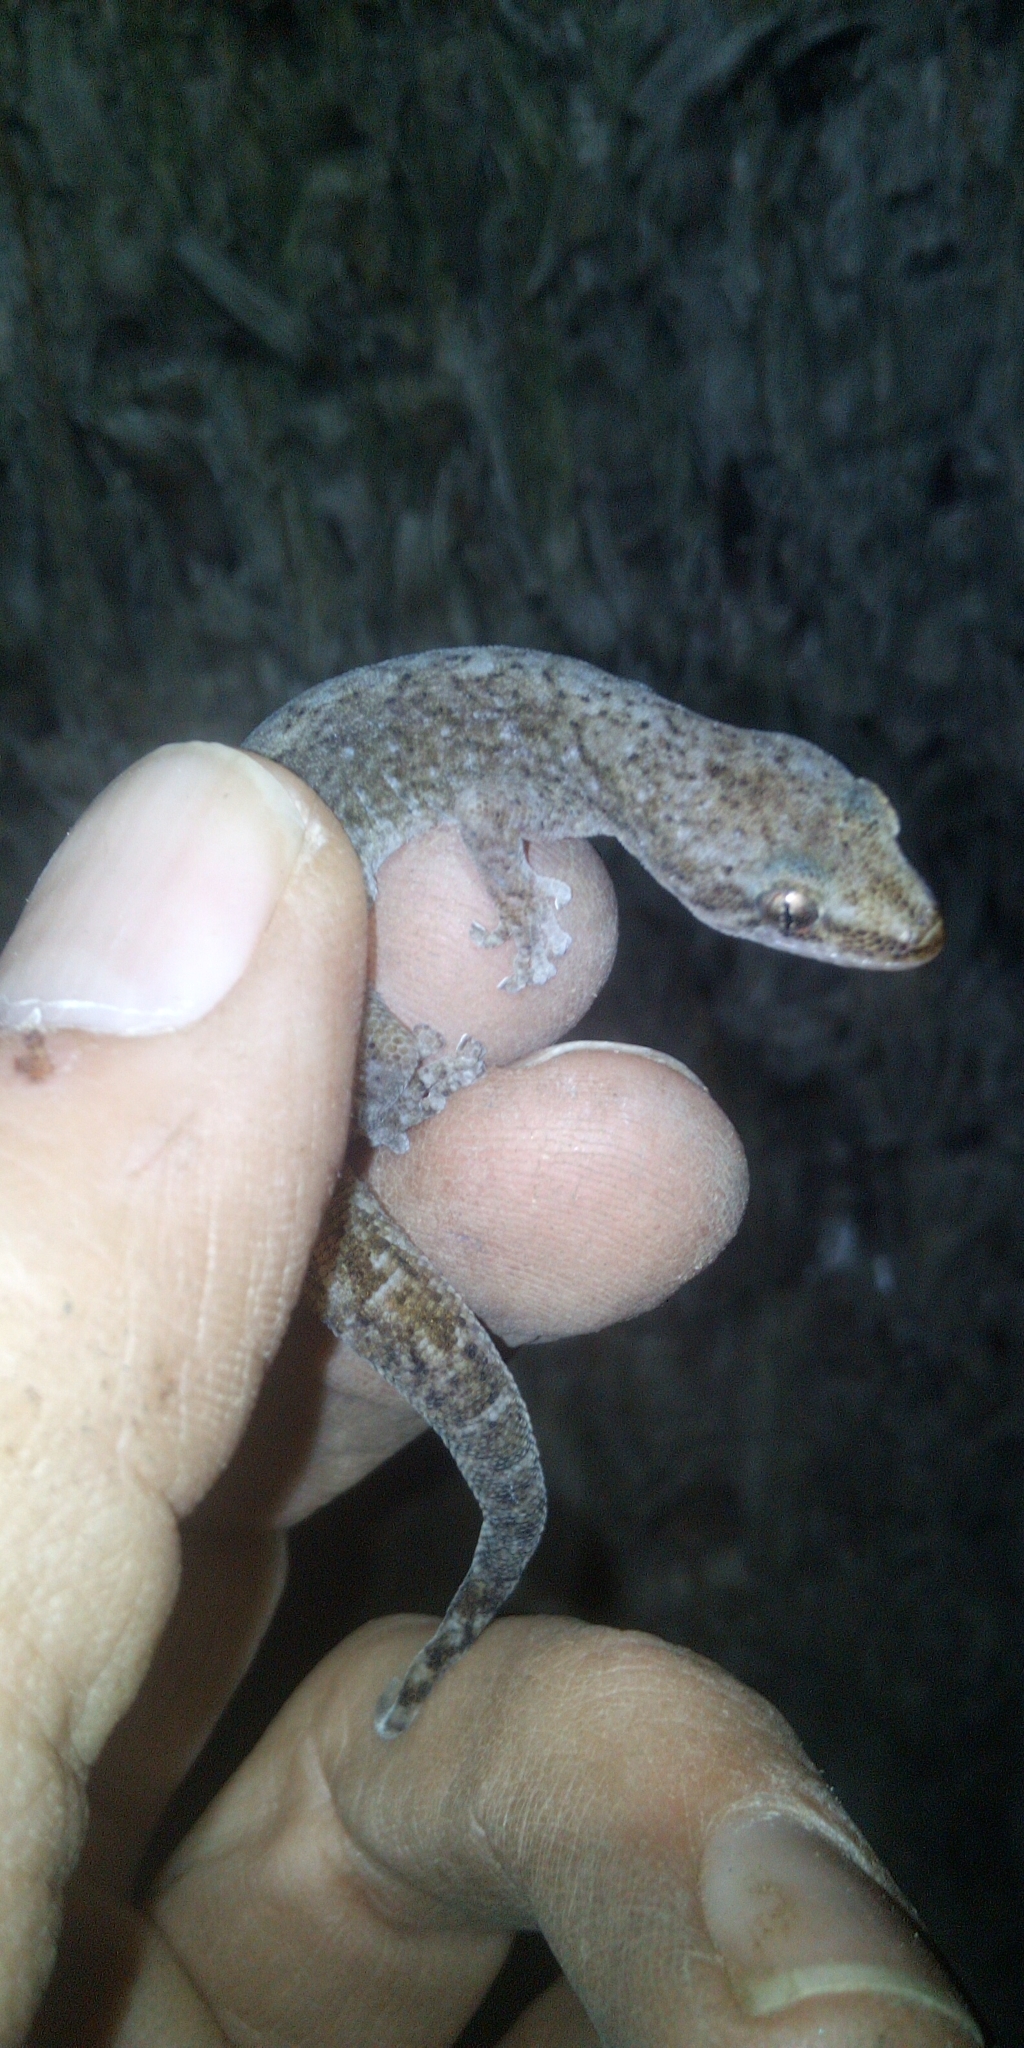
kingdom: Animalia
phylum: Chordata
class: Squamata
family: Gekkonidae
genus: Afrogecko
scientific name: Afrogecko porphyreus
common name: Marbled leaf-toed gecko
